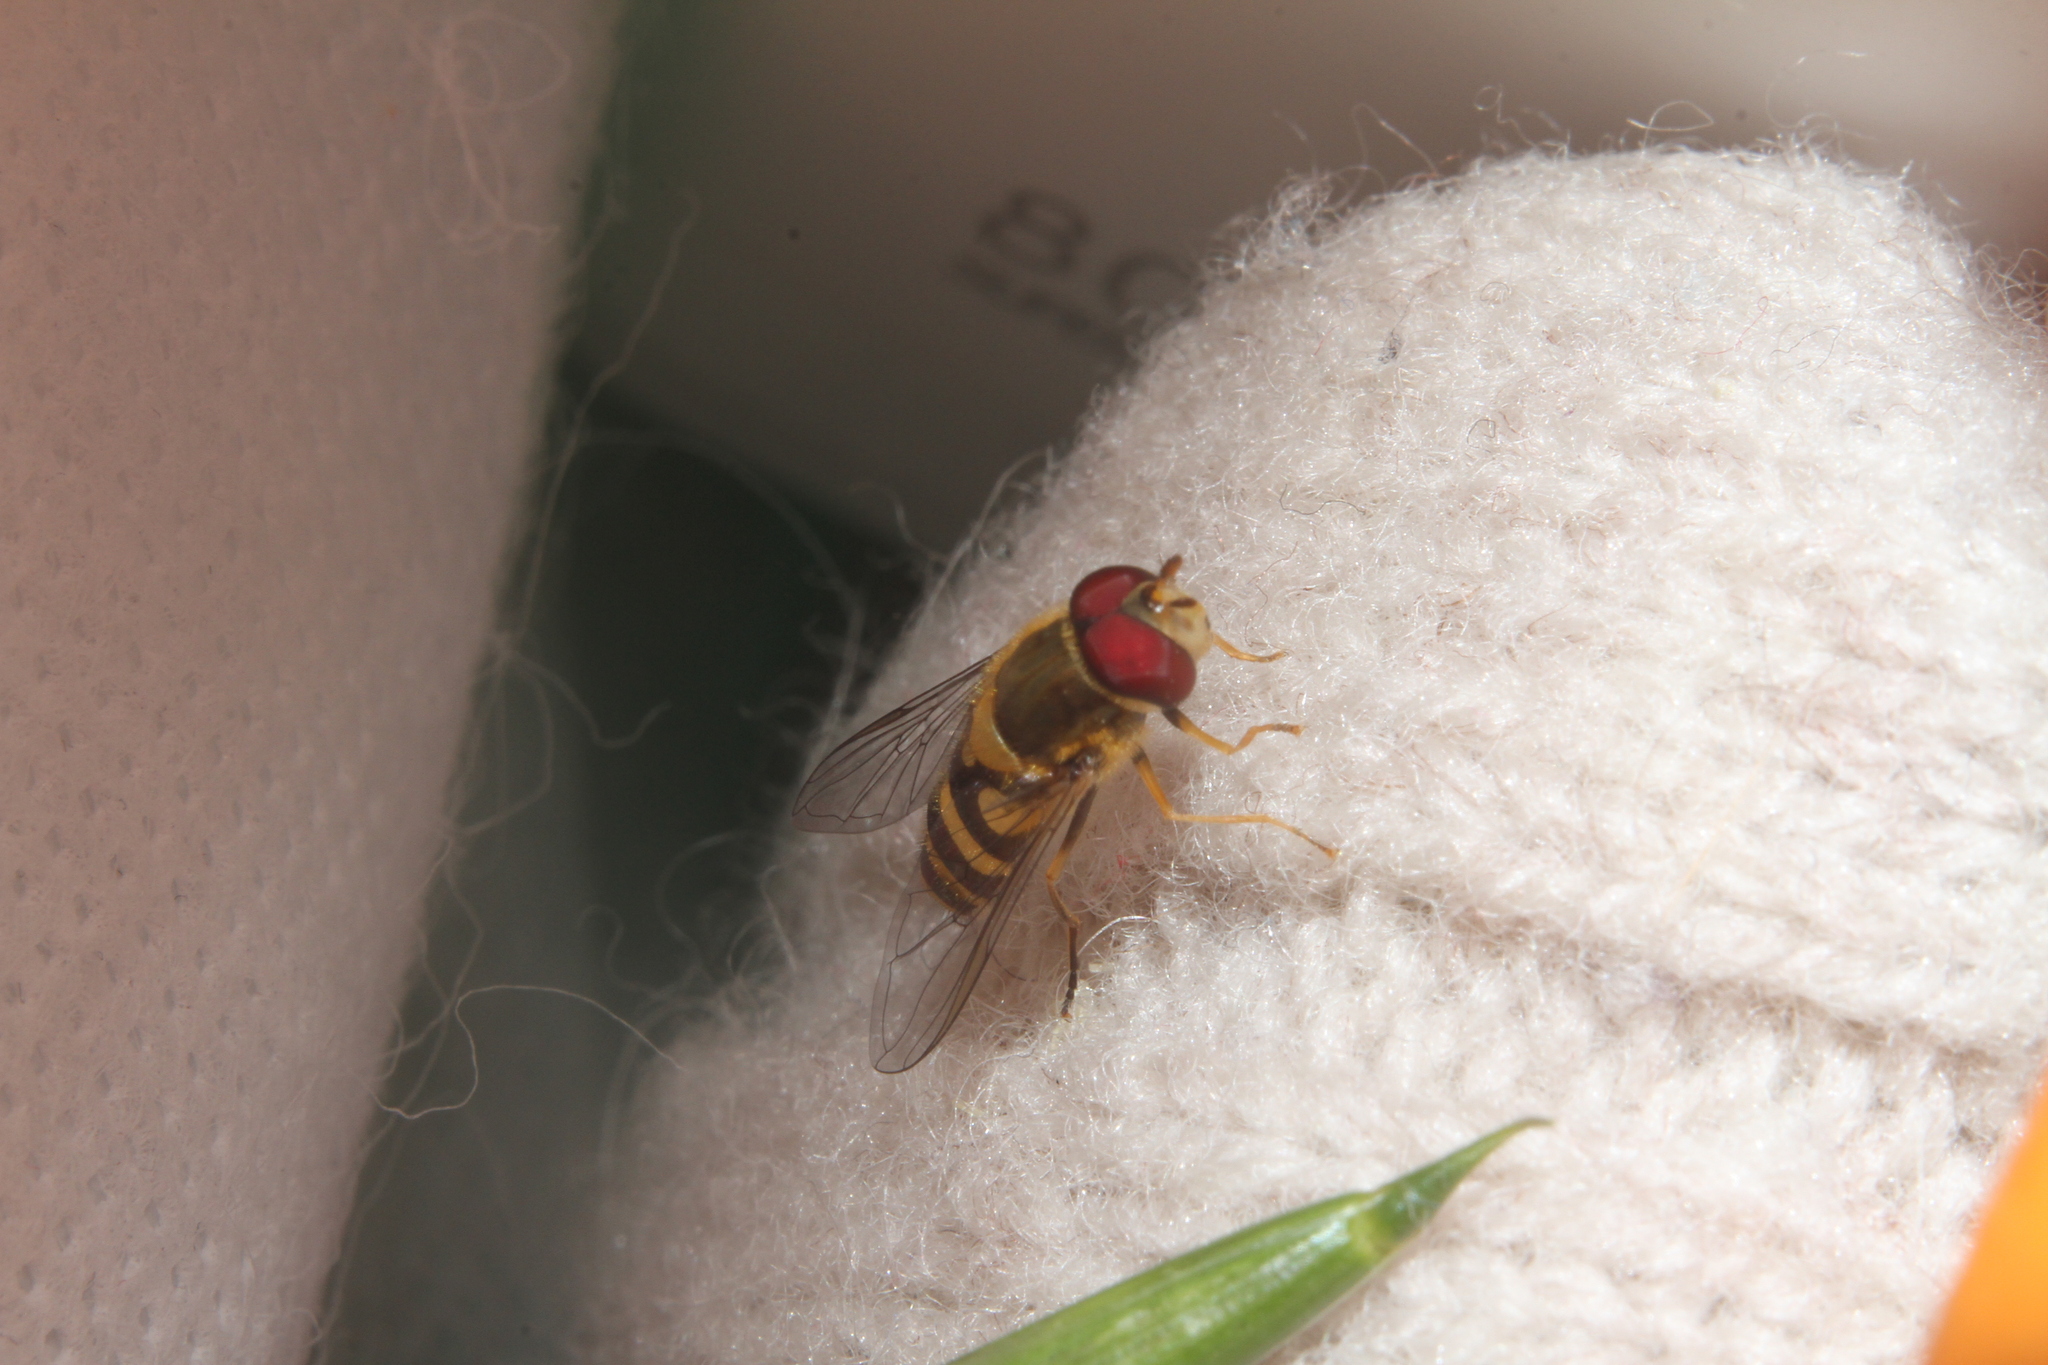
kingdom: Animalia
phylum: Arthropoda
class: Insecta
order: Diptera
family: Syrphidae
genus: Syrphus
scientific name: Syrphus
